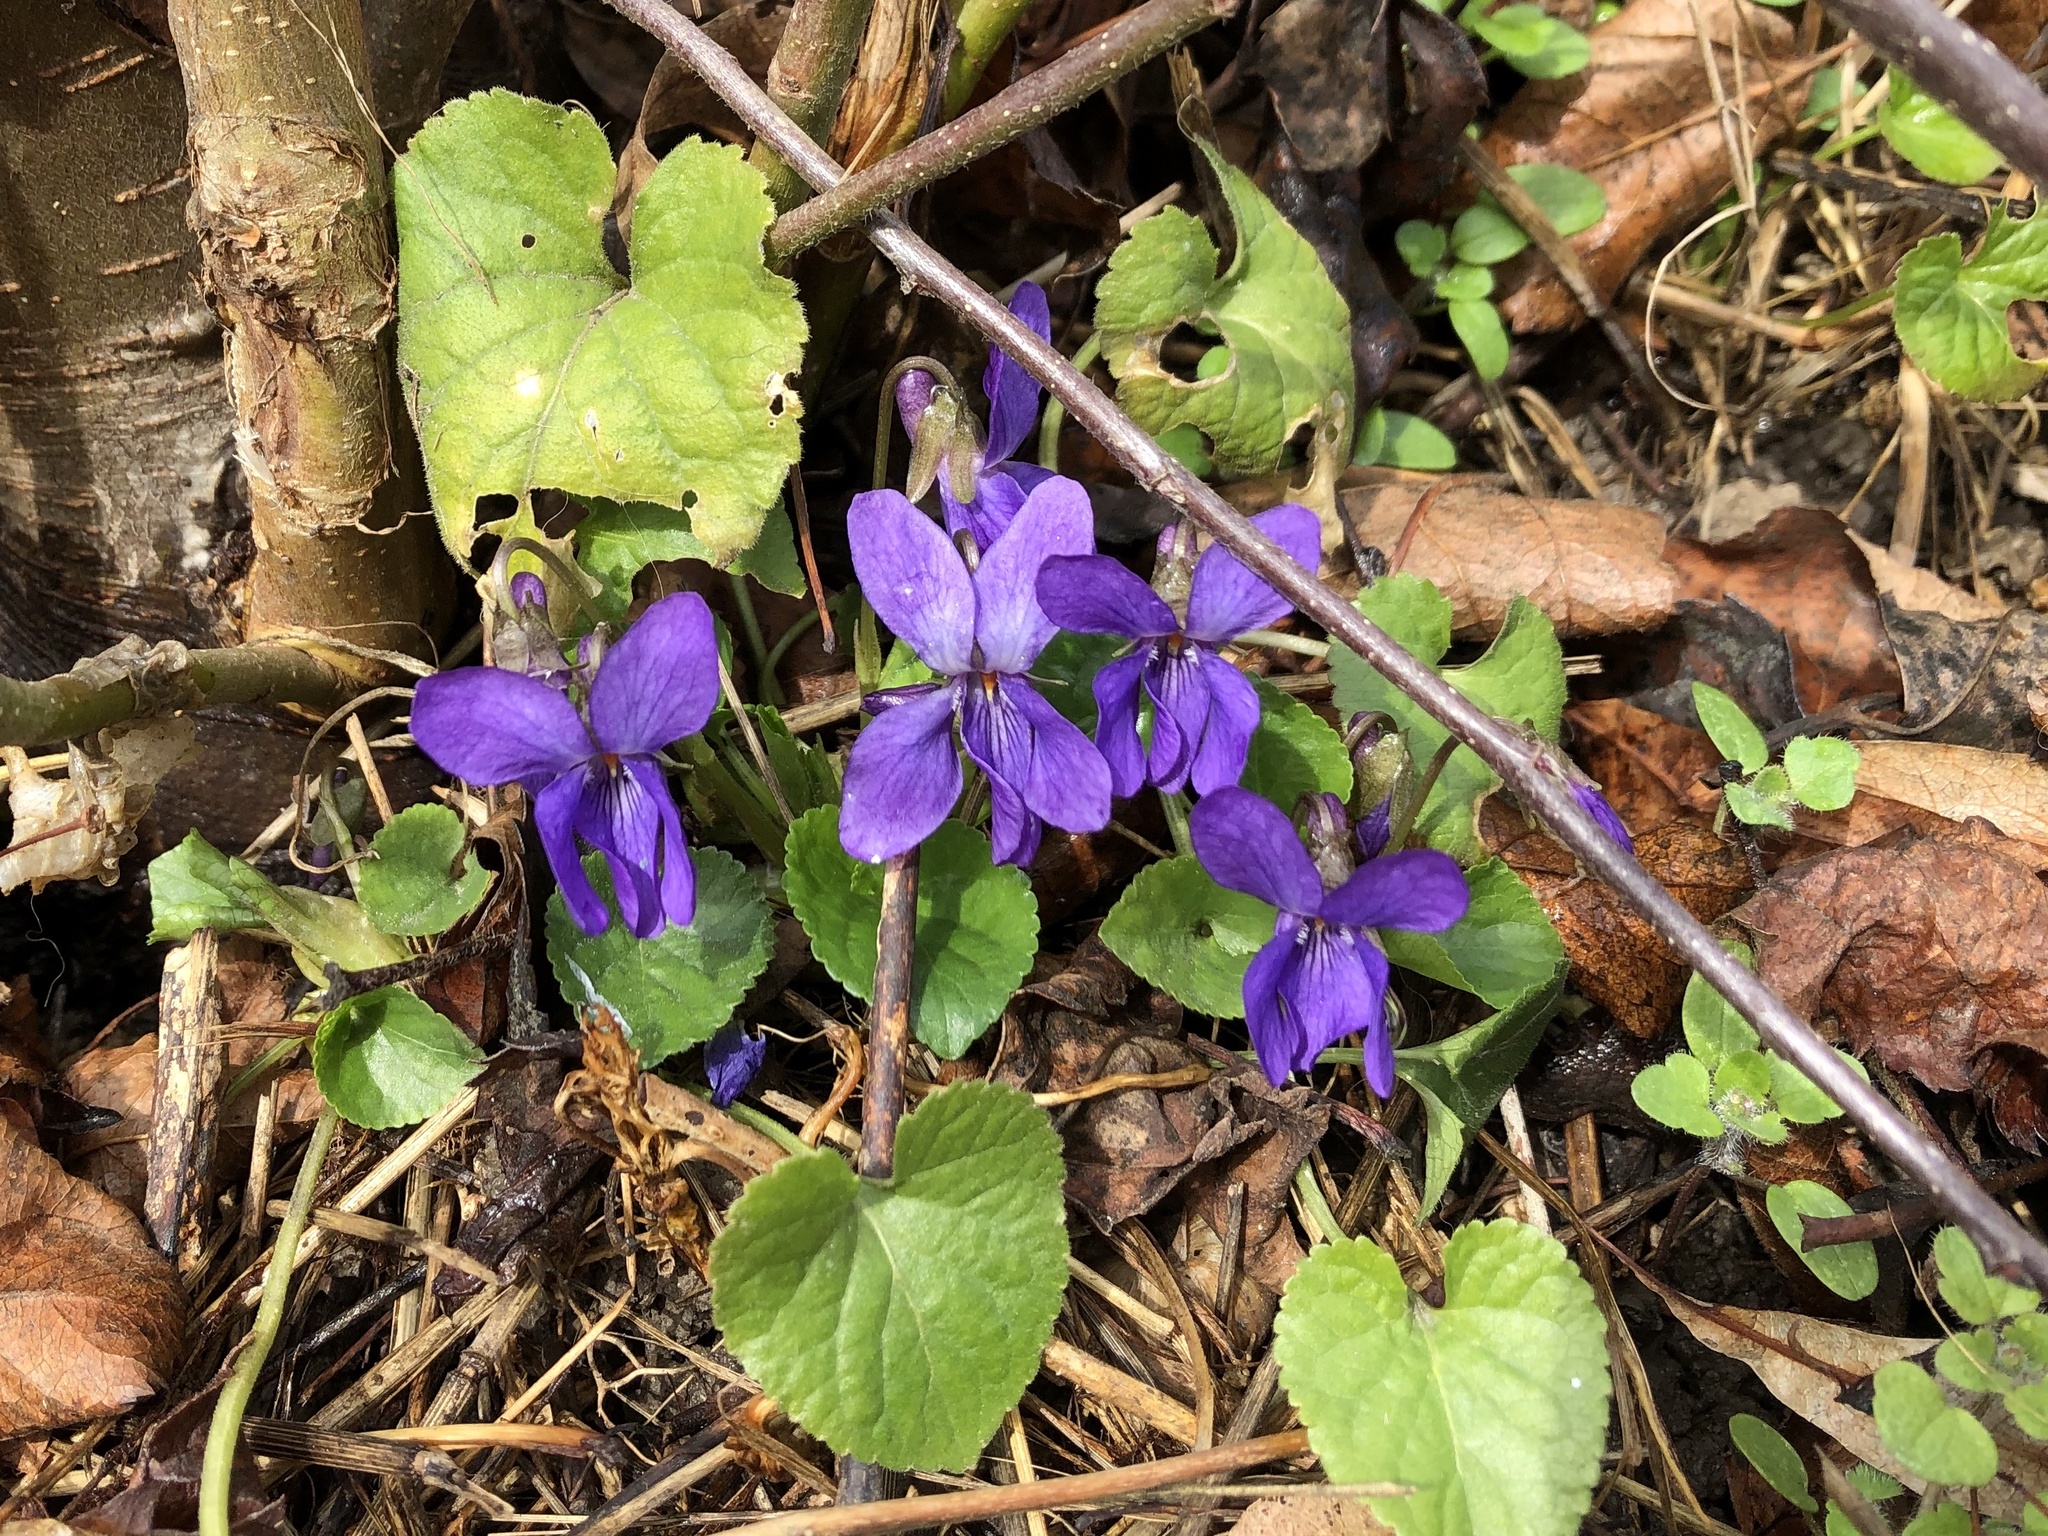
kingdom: Plantae
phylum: Tracheophyta
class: Magnoliopsida
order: Malpighiales
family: Violaceae
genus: Viola
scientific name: Viola odorata
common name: Sweet violet
